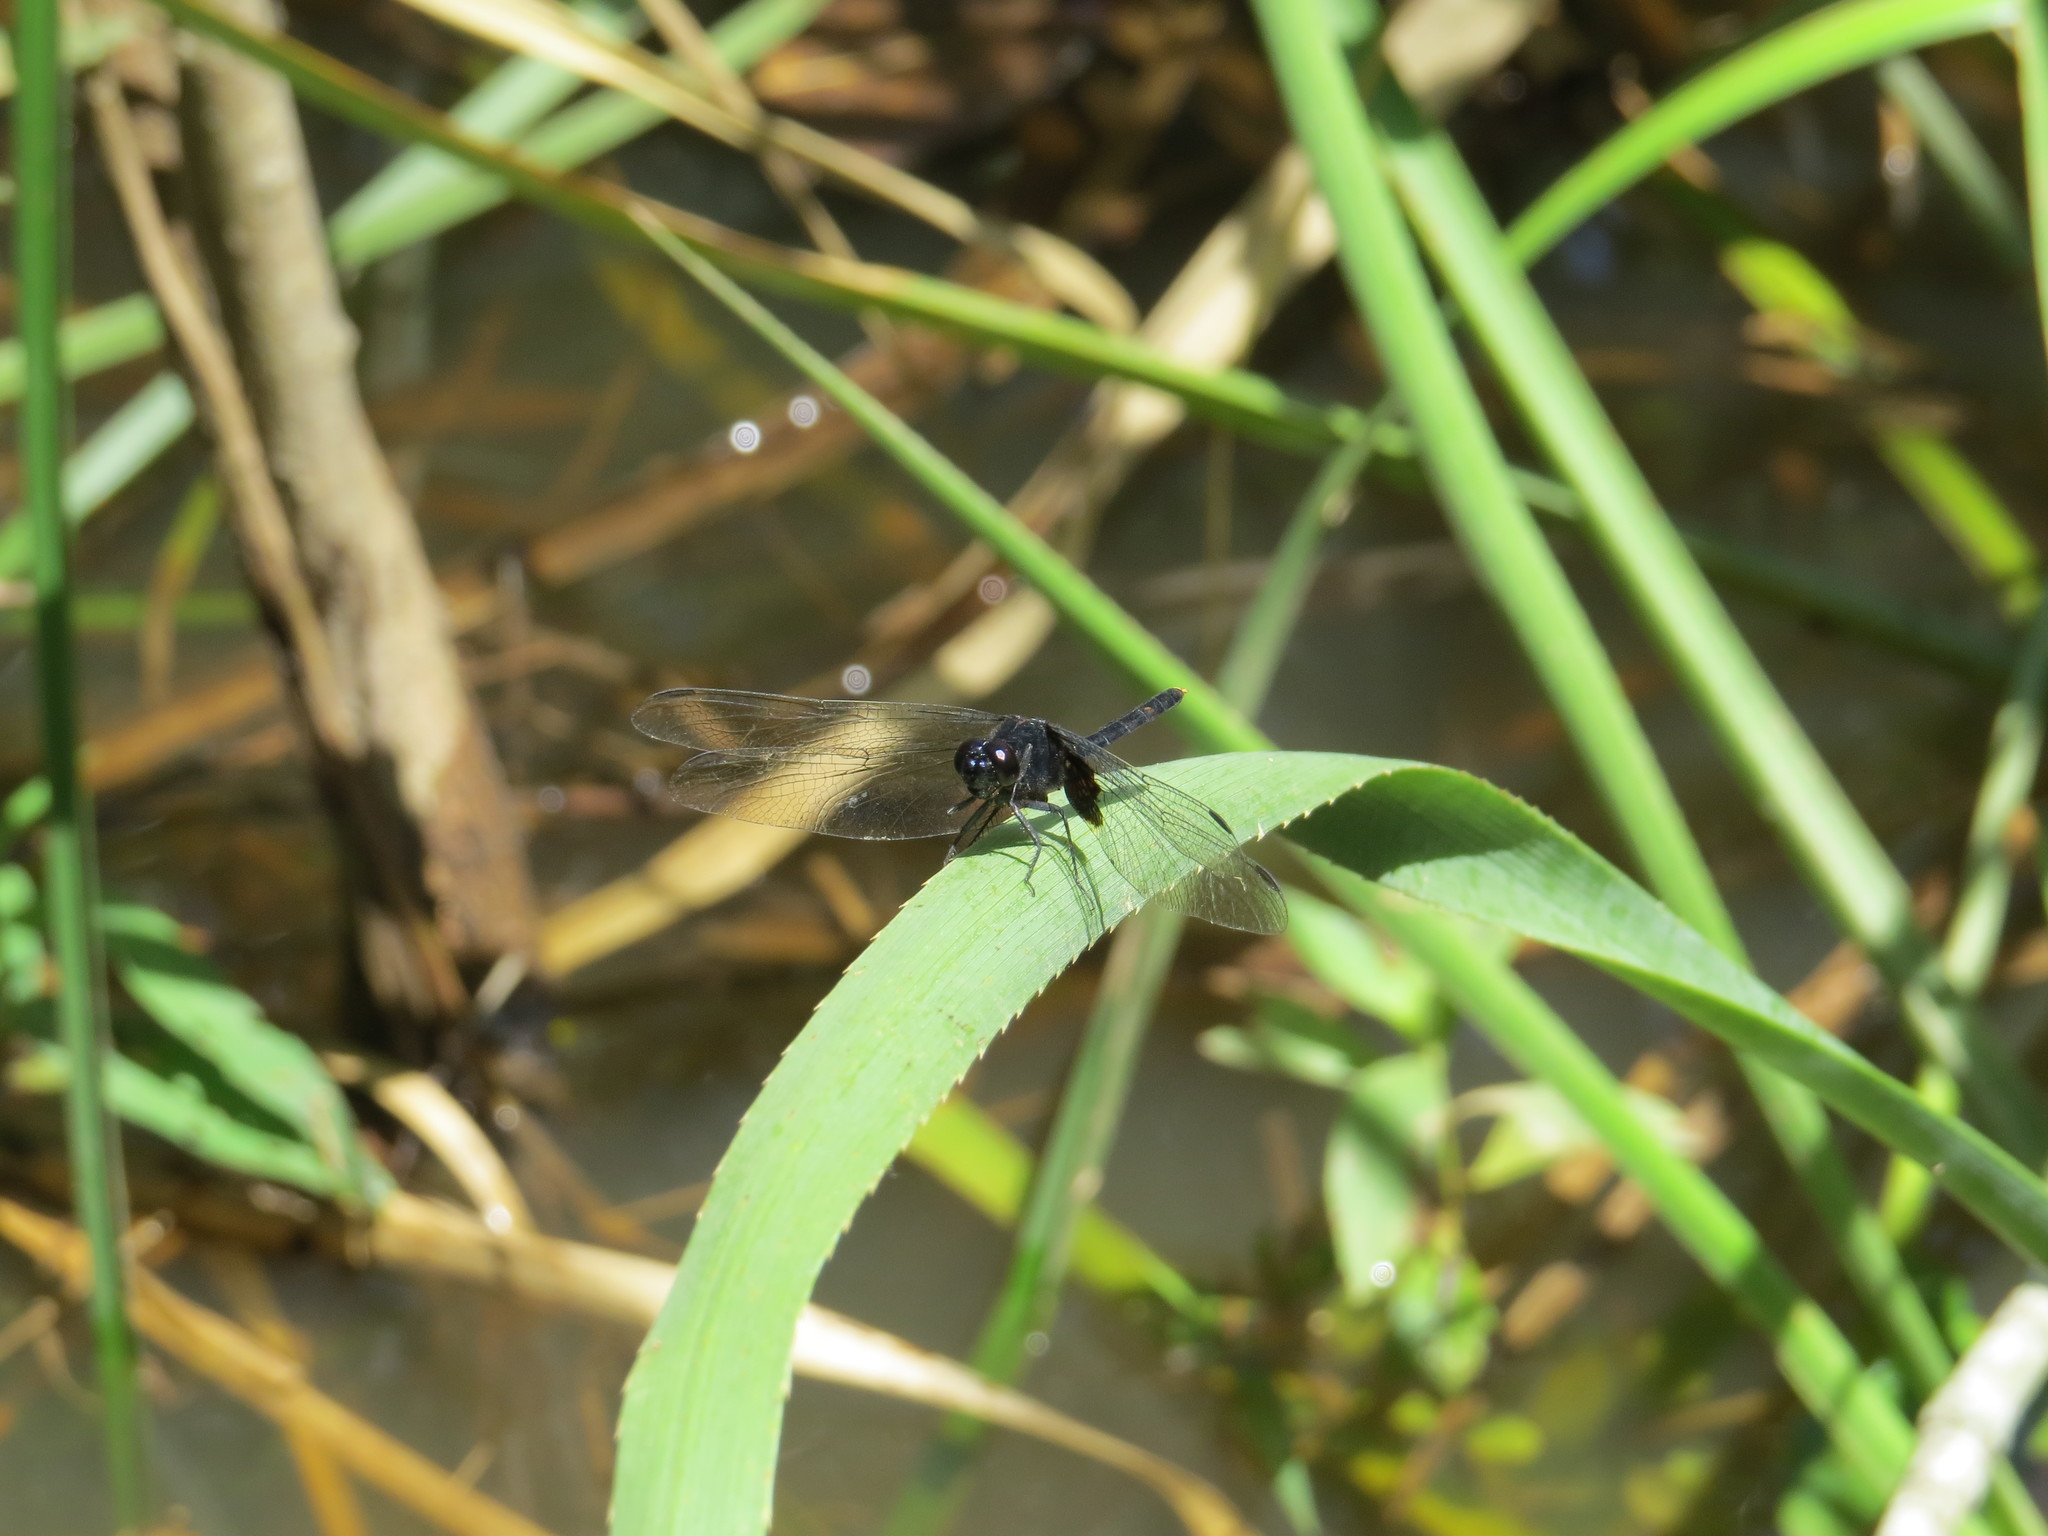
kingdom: Animalia
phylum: Arthropoda
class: Insecta
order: Odonata
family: Libellulidae
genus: Erythemis
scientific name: Erythemis attala
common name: Black pondhawk
